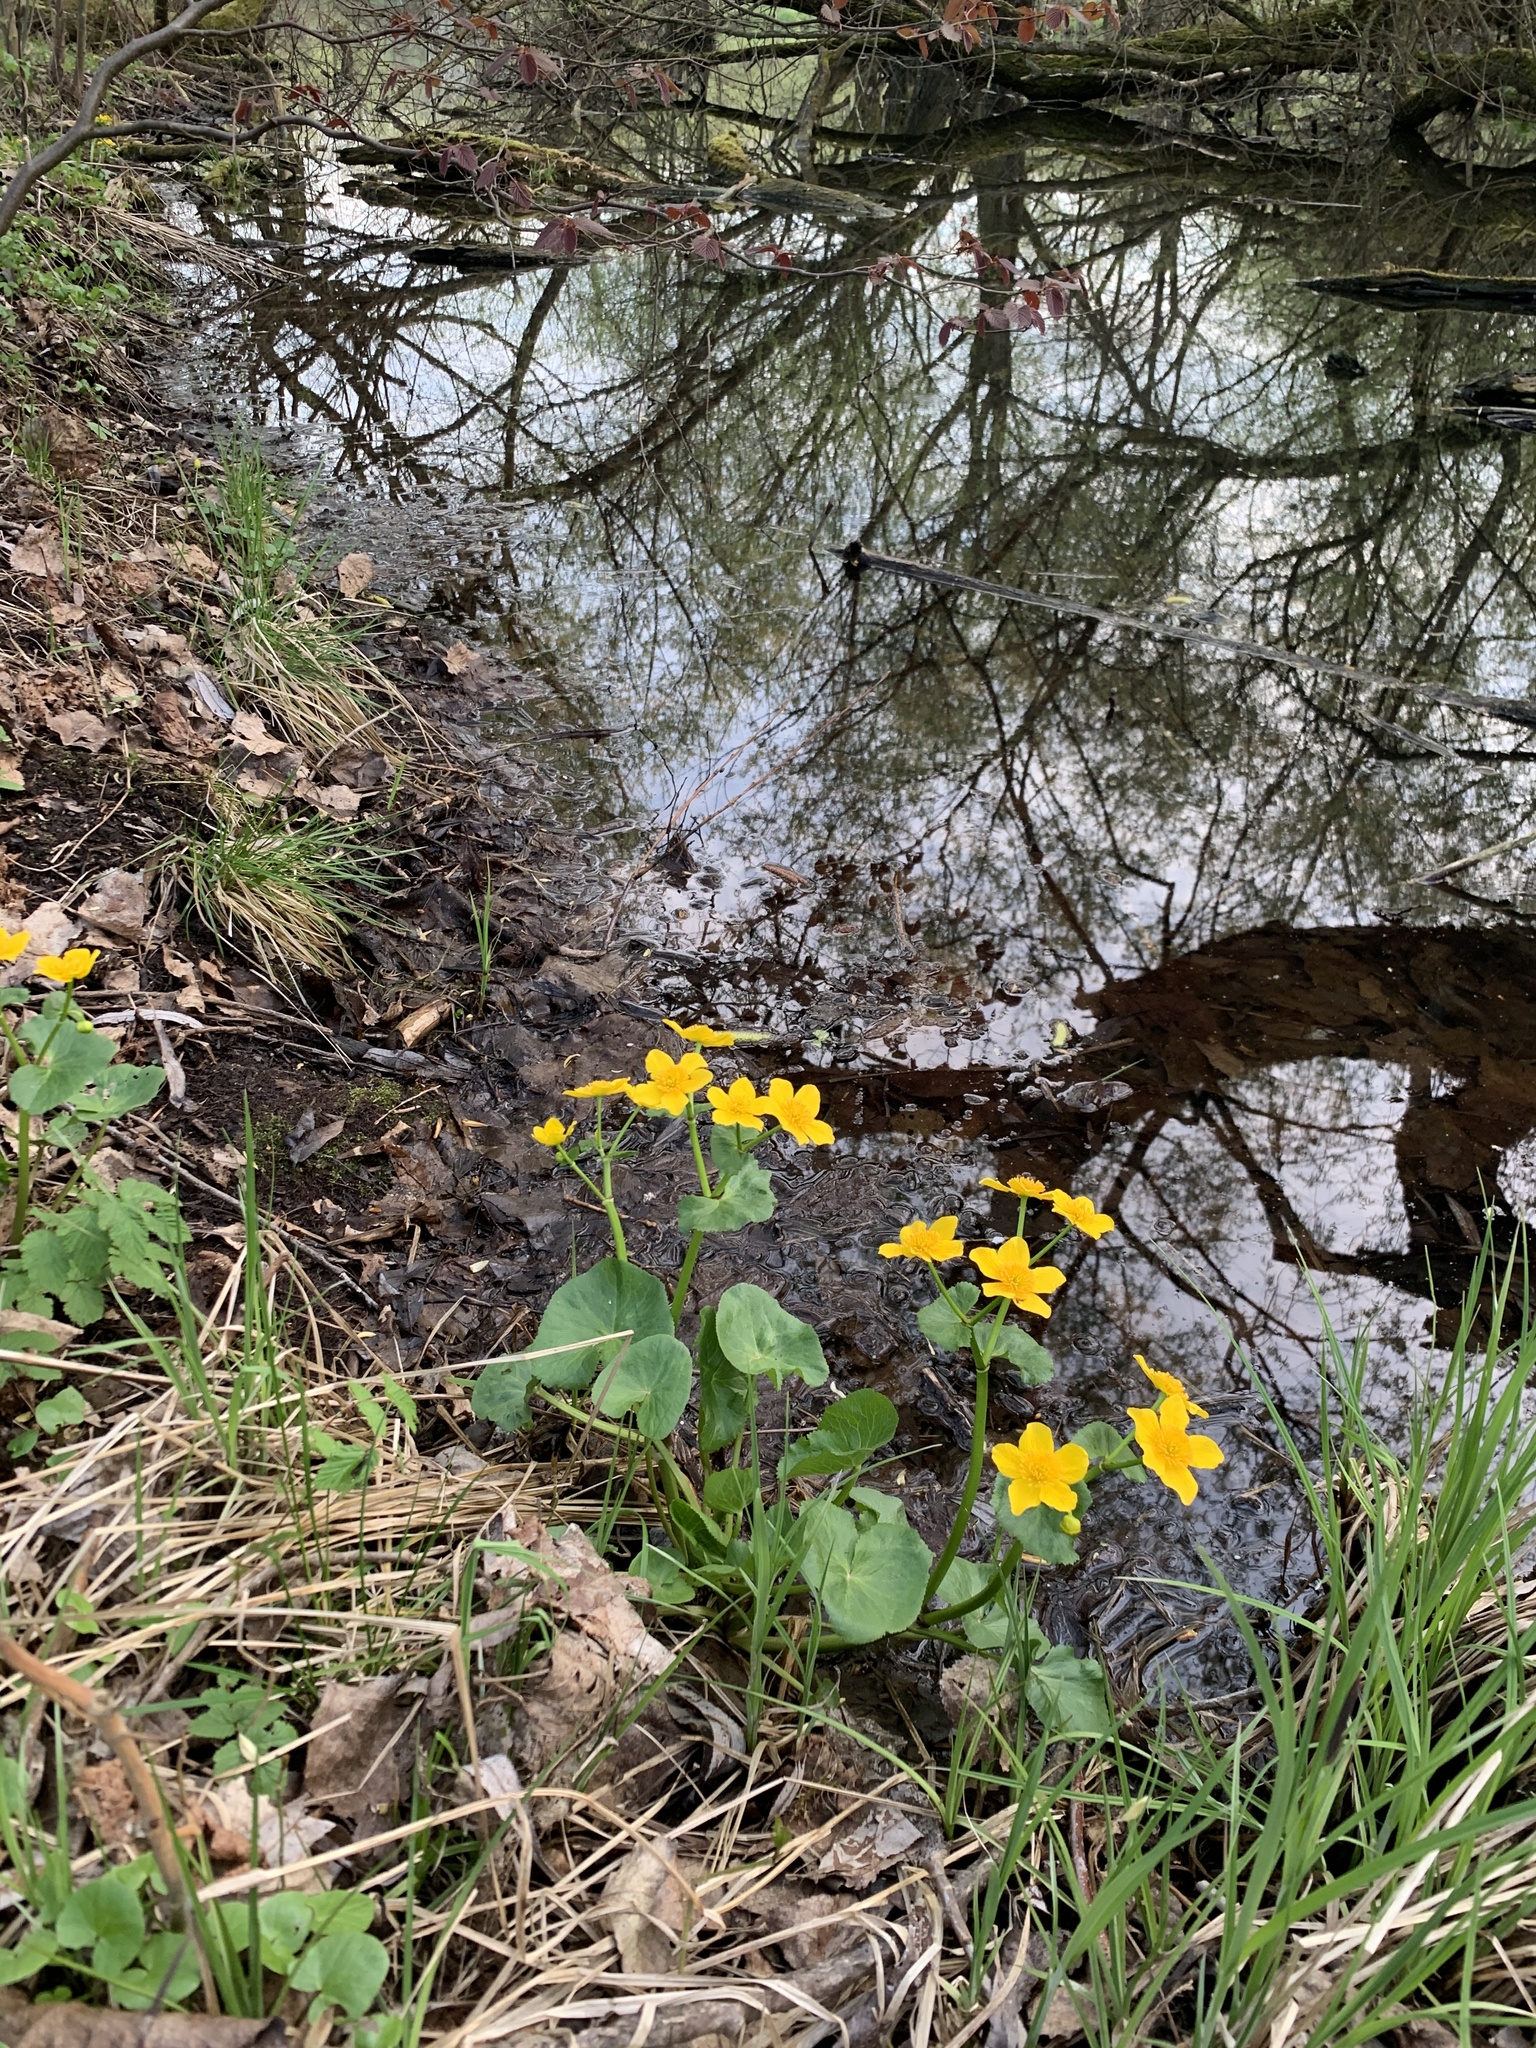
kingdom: Plantae
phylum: Tracheophyta
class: Magnoliopsida
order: Ranunculales
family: Ranunculaceae
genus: Caltha
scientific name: Caltha palustris
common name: Marsh marigold
